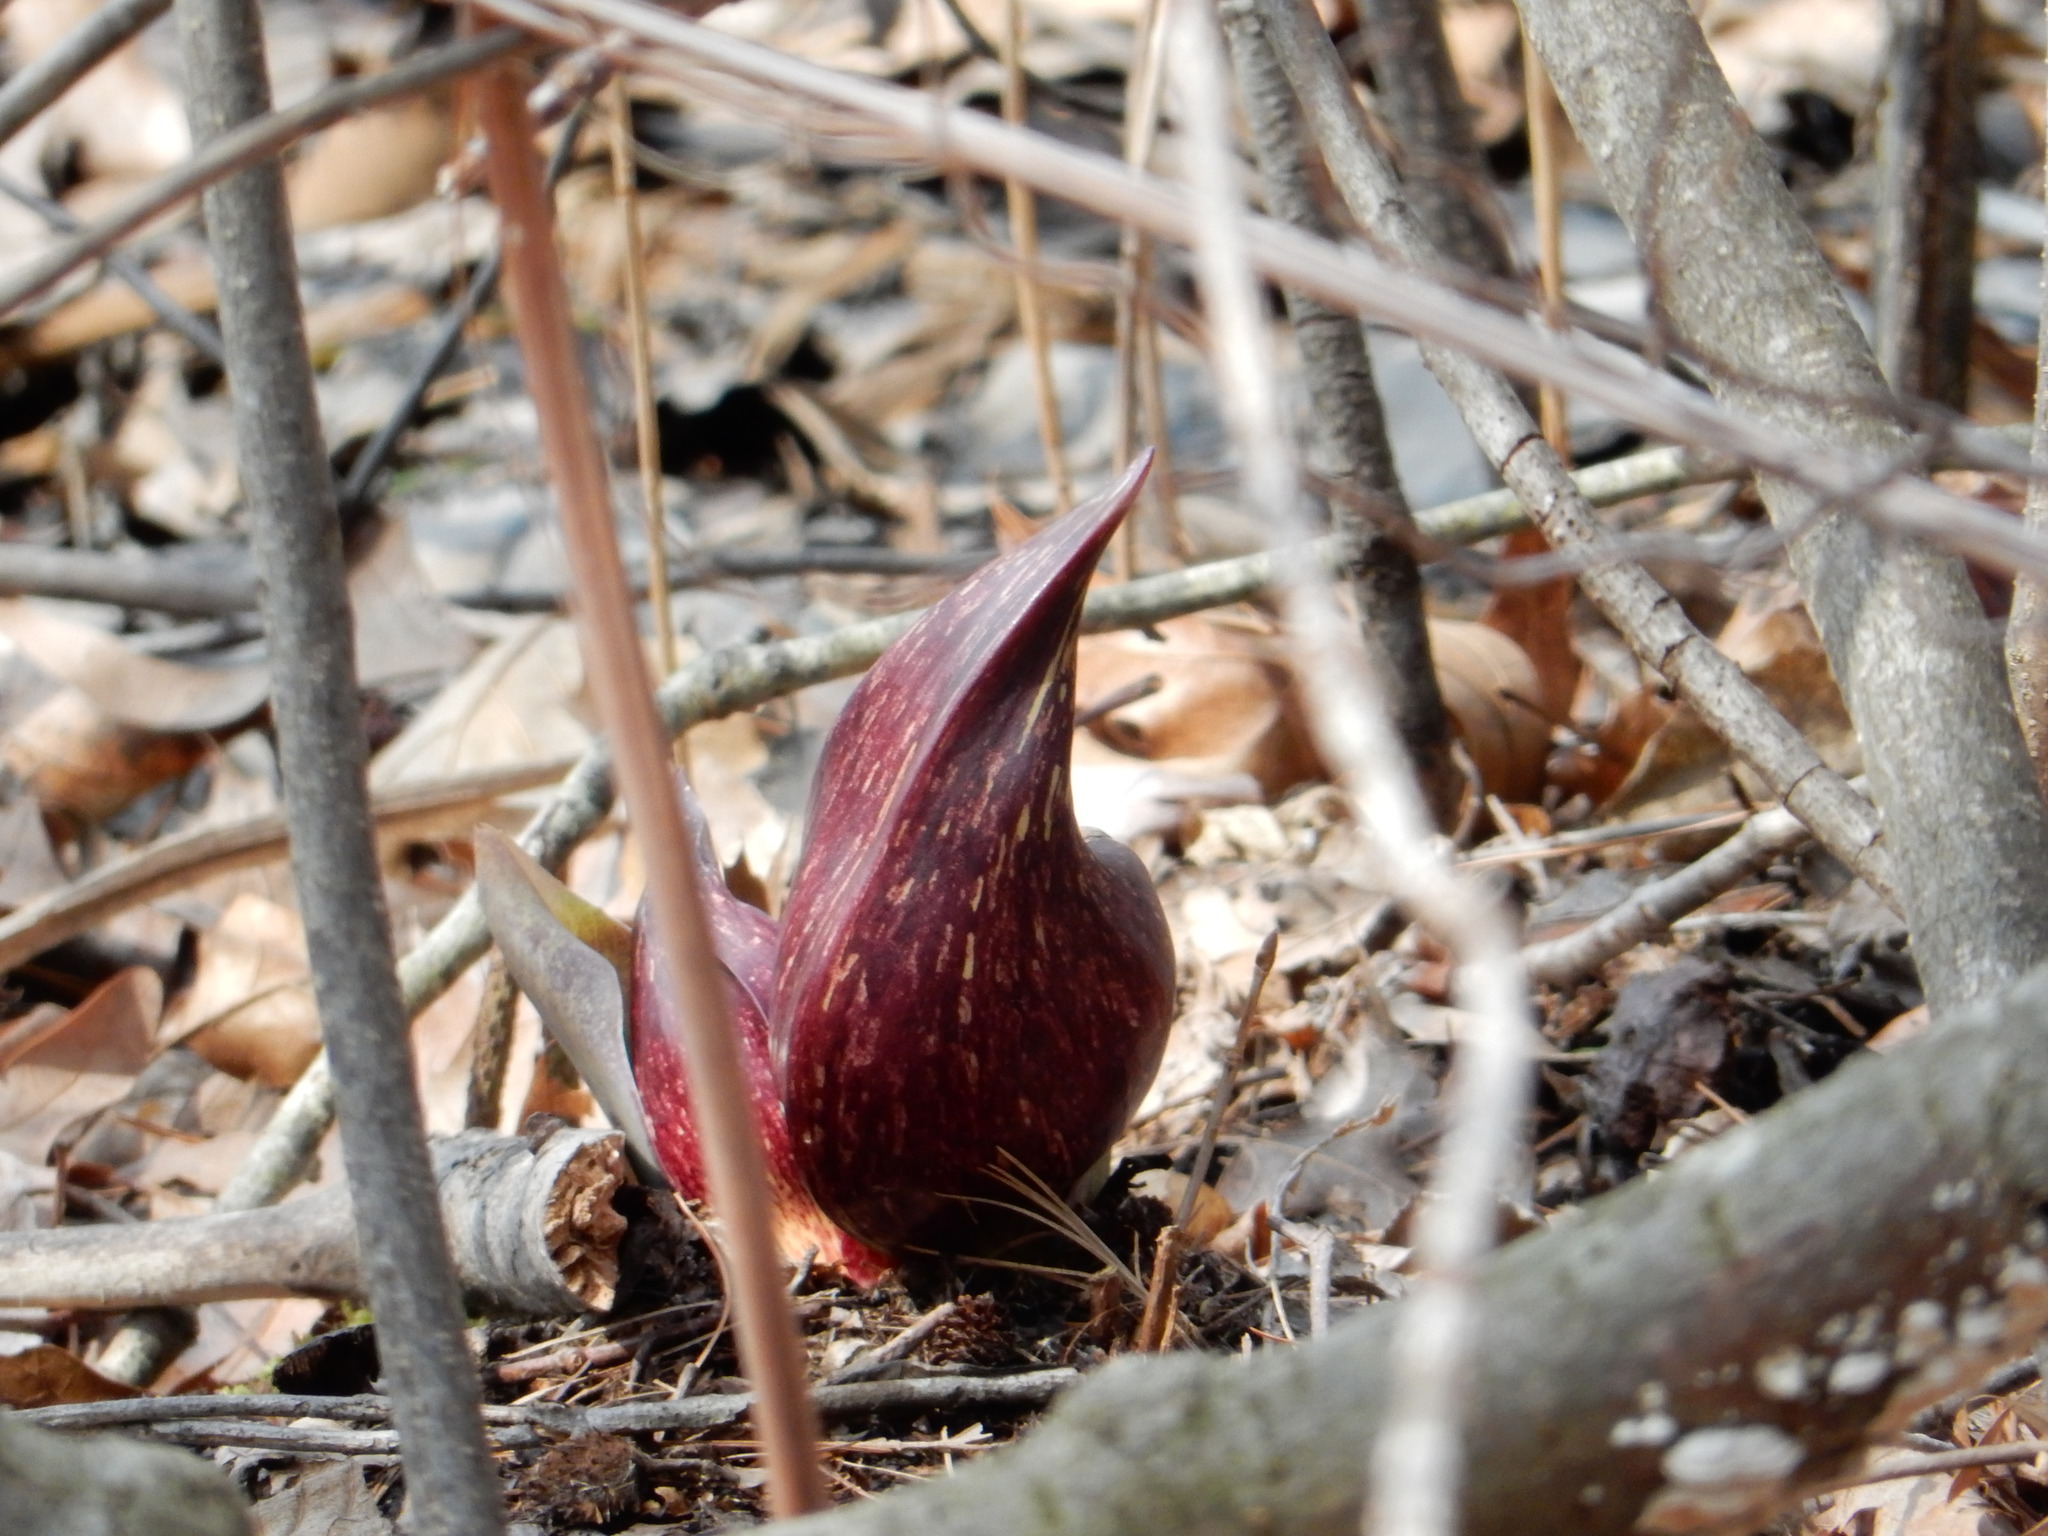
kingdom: Plantae
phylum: Tracheophyta
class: Liliopsida
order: Alismatales
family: Araceae
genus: Symplocarpus
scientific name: Symplocarpus foetidus
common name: Eastern skunk cabbage
